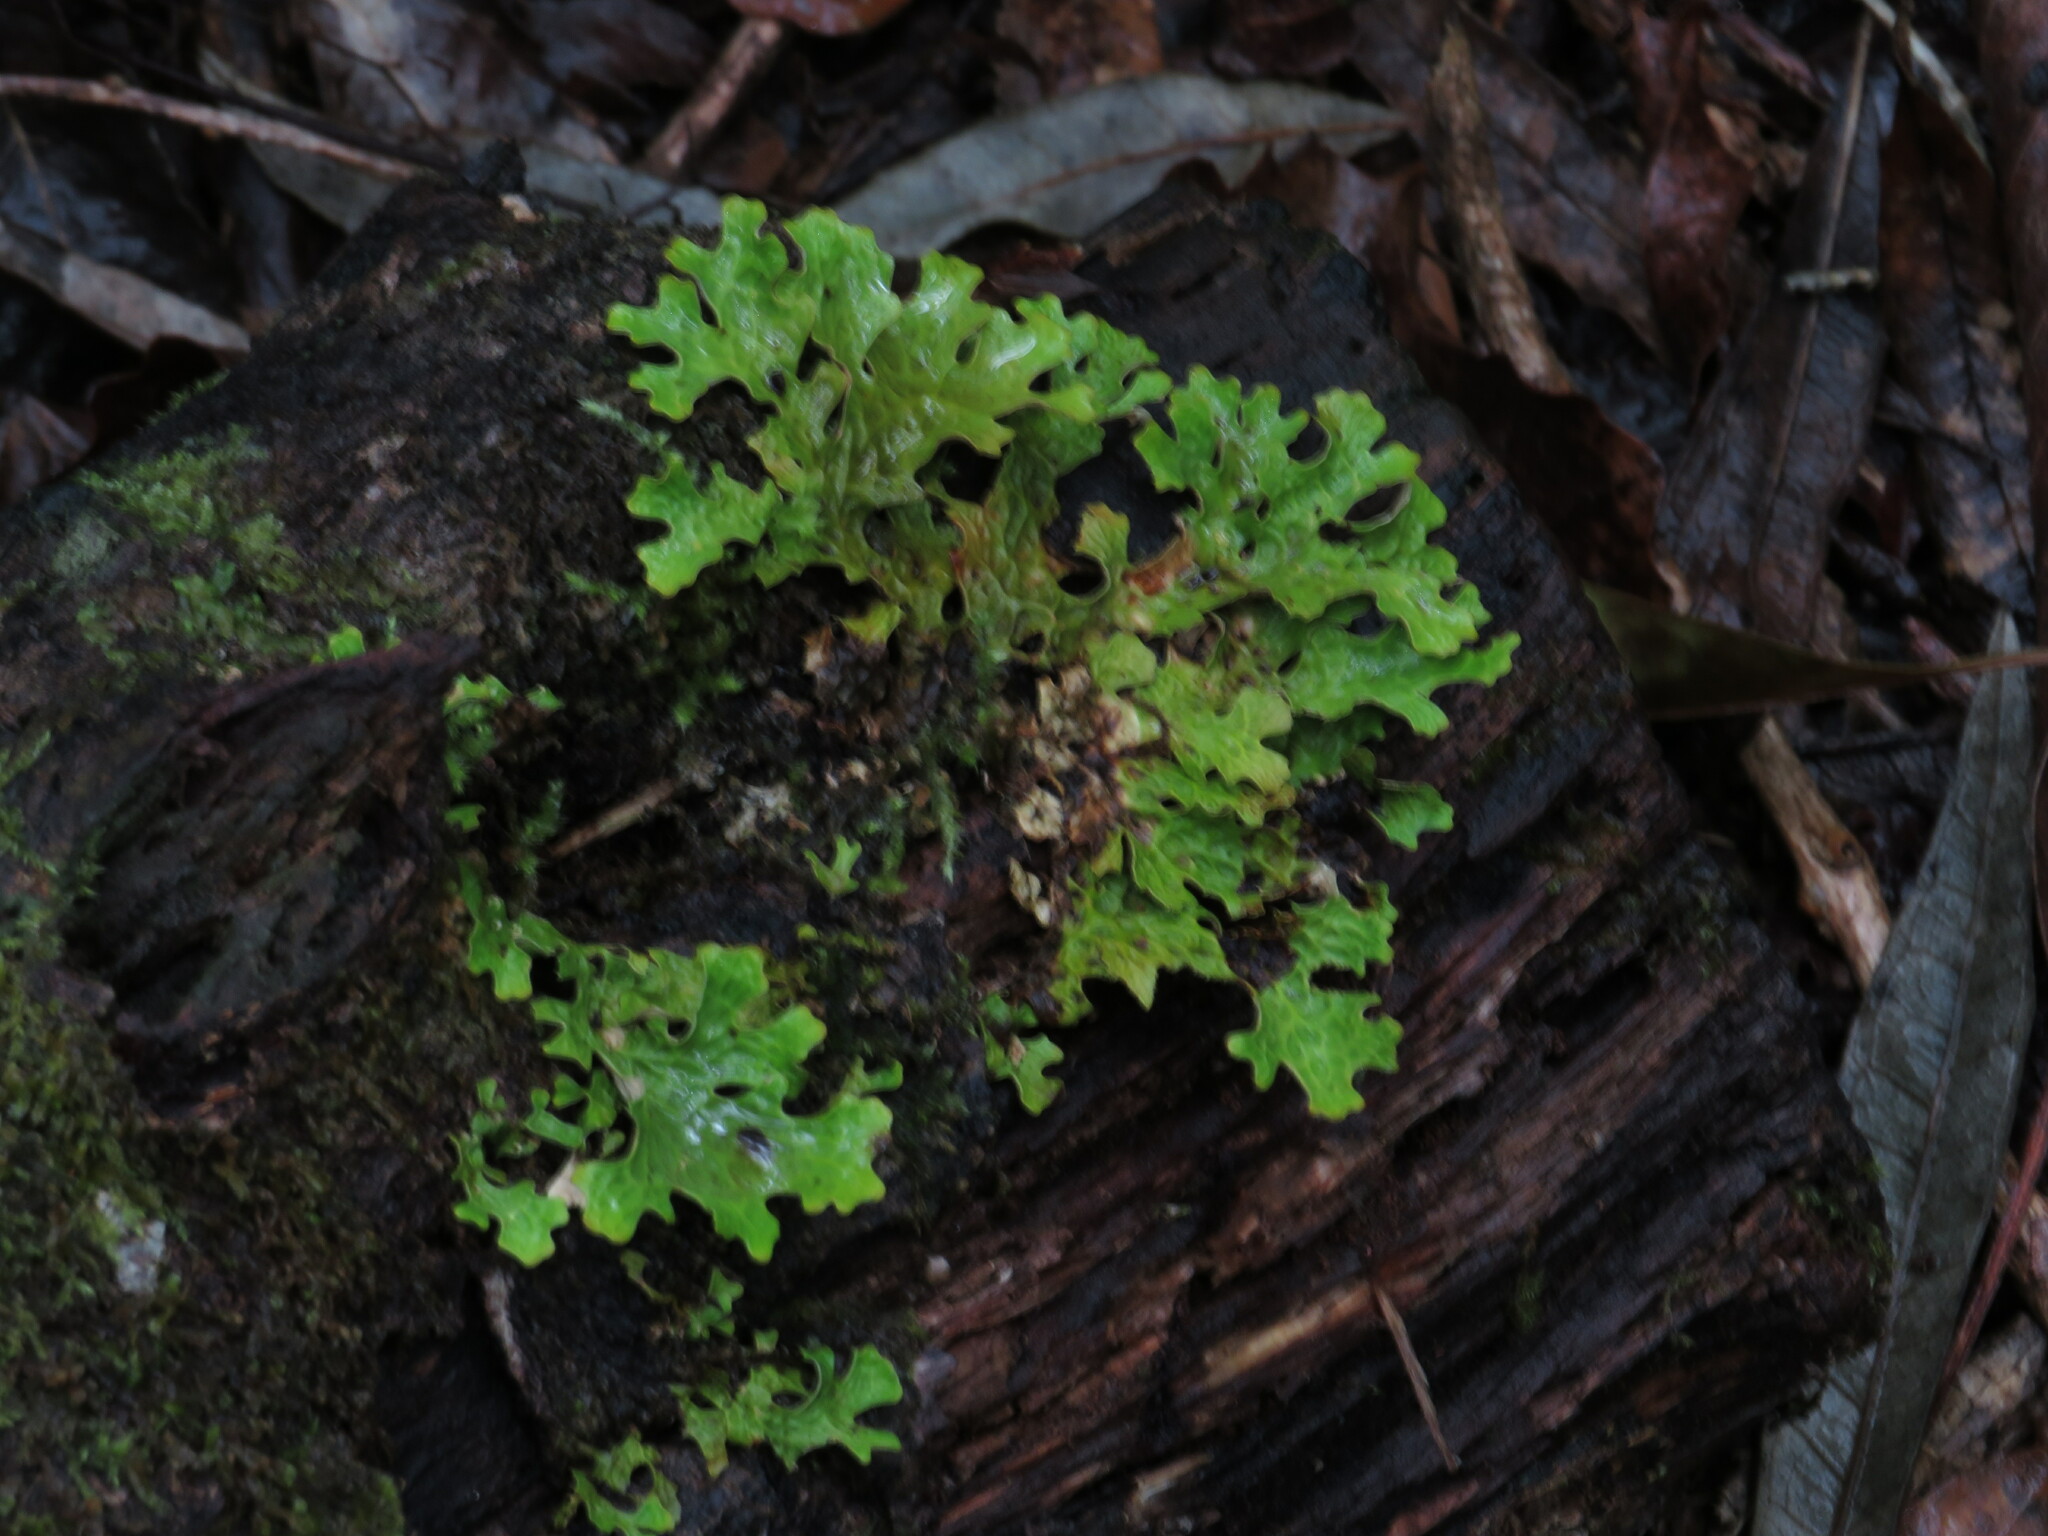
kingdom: Fungi
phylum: Ascomycota
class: Lecanoromycetes
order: Peltigerales
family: Lobariaceae
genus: Lobaria
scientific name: Lobaria pulmonaria
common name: Lungwort
